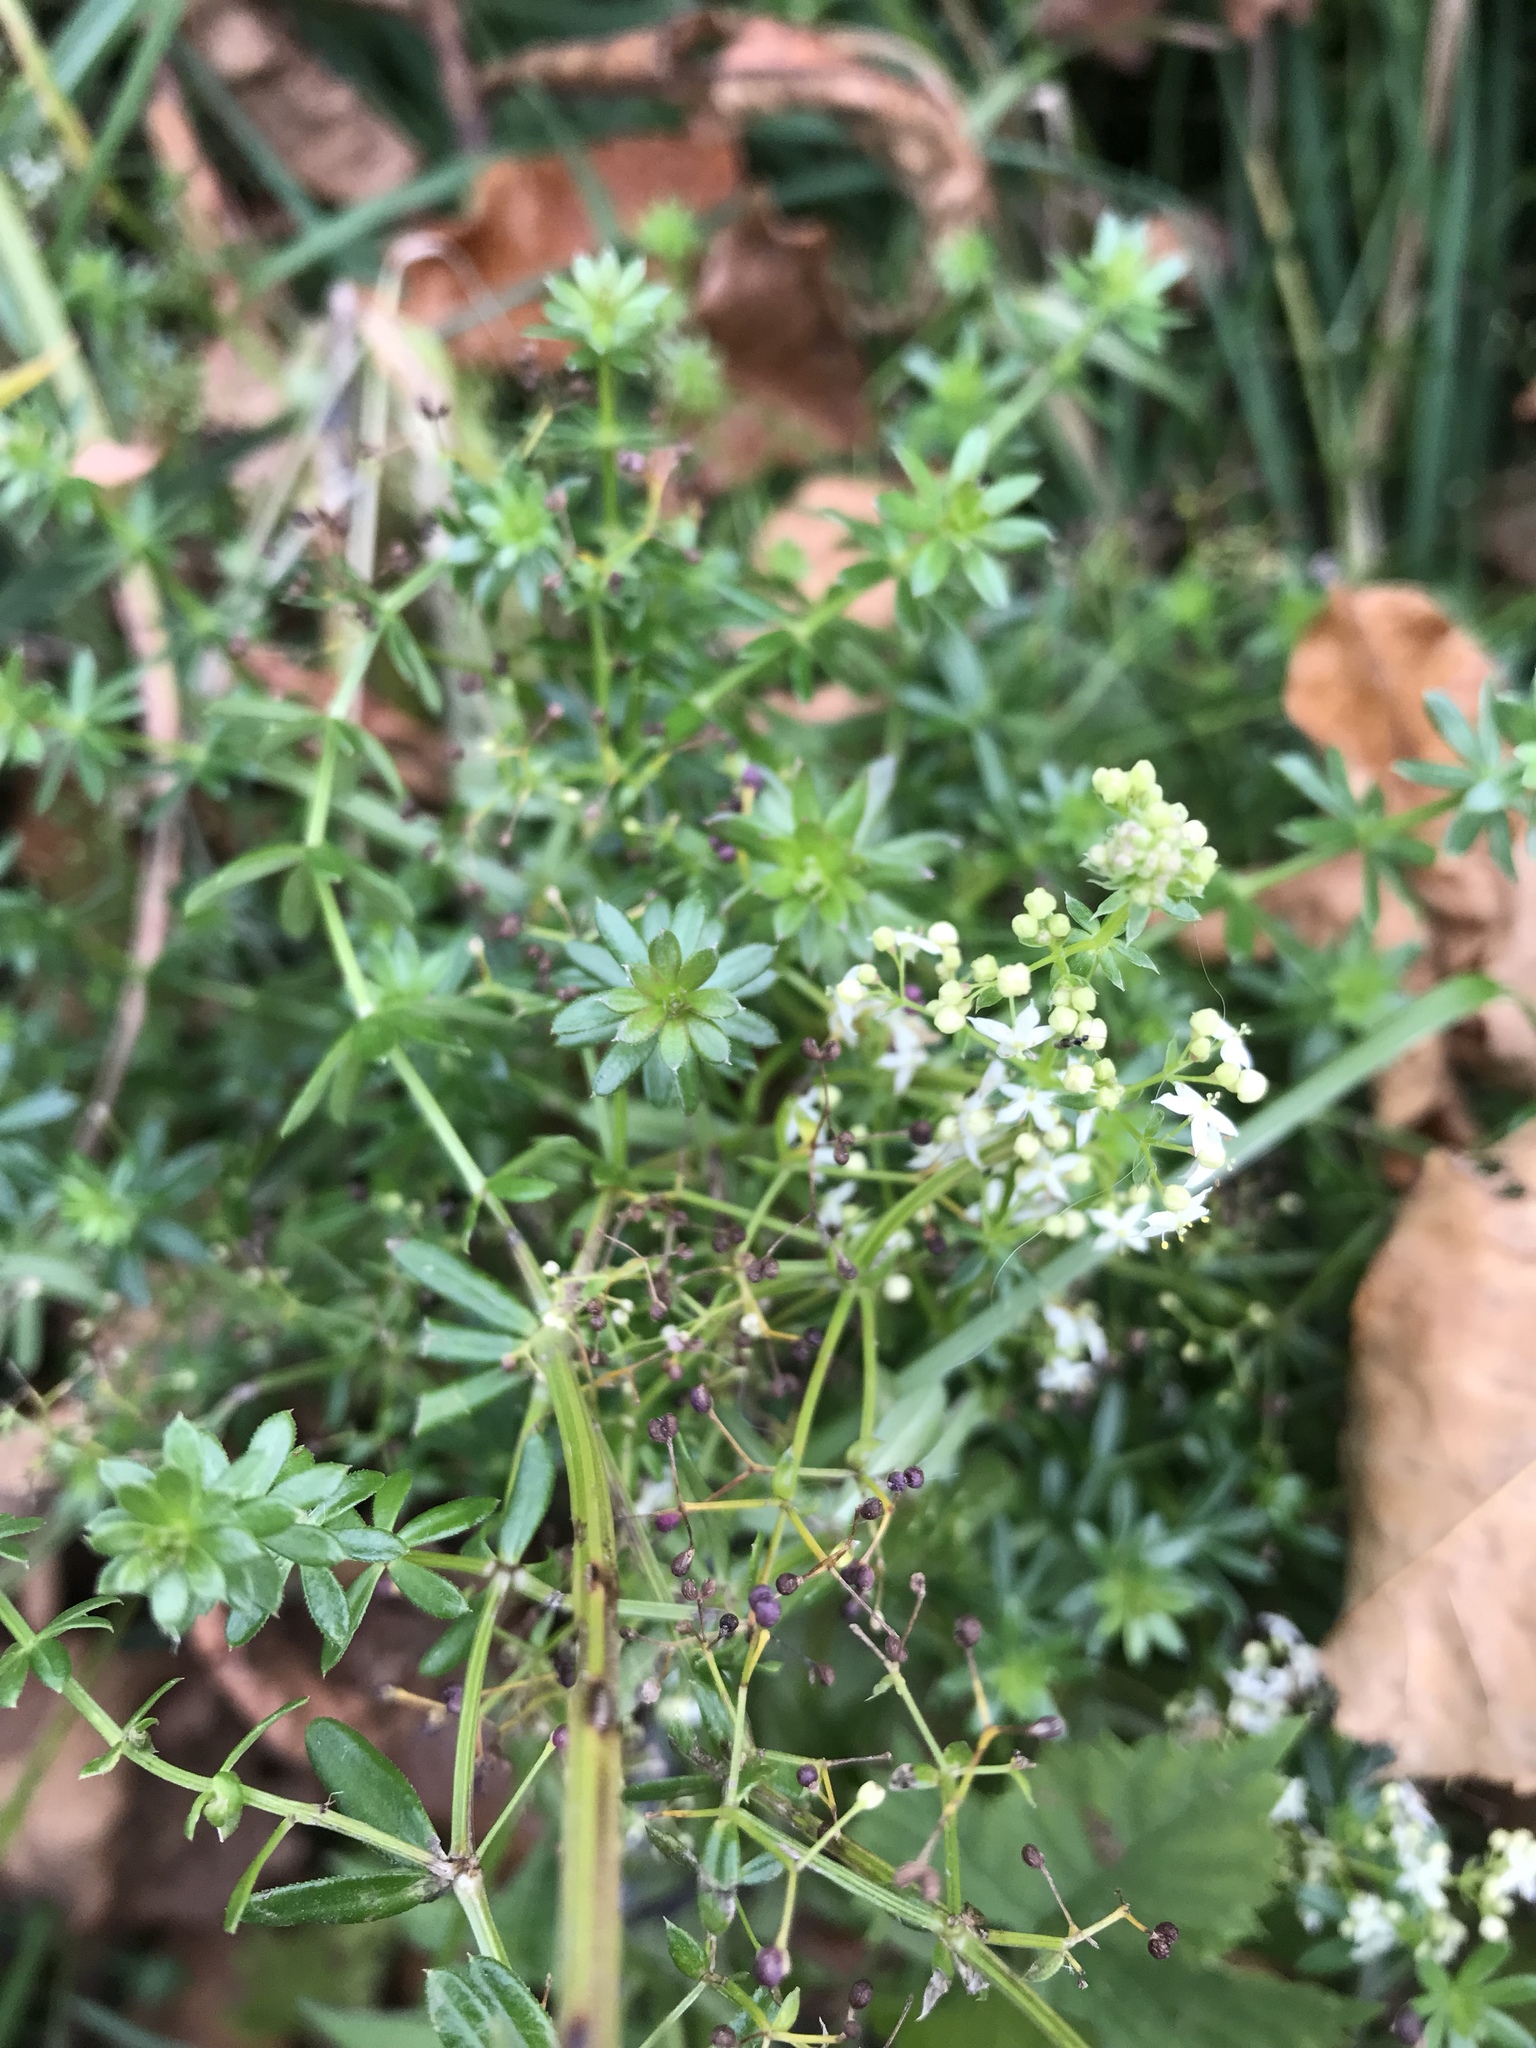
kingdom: Plantae
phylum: Tracheophyta
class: Magnoliopsida
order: Gentianales
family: Rubiaceae
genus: Galium
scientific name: Galium mollugo
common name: Hedge bedstraw
